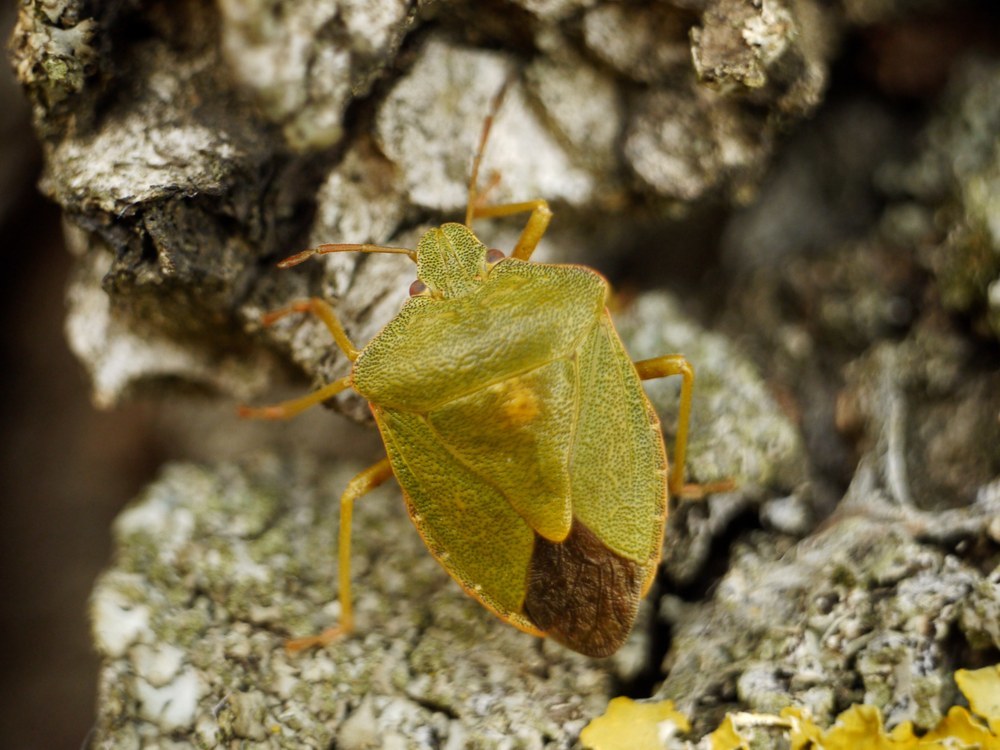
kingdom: Animalia
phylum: Arthropoda
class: Insecta
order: Hemiptera
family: Pentatomidae
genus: Palomena
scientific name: Palomena prasina
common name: Green shieldbug
